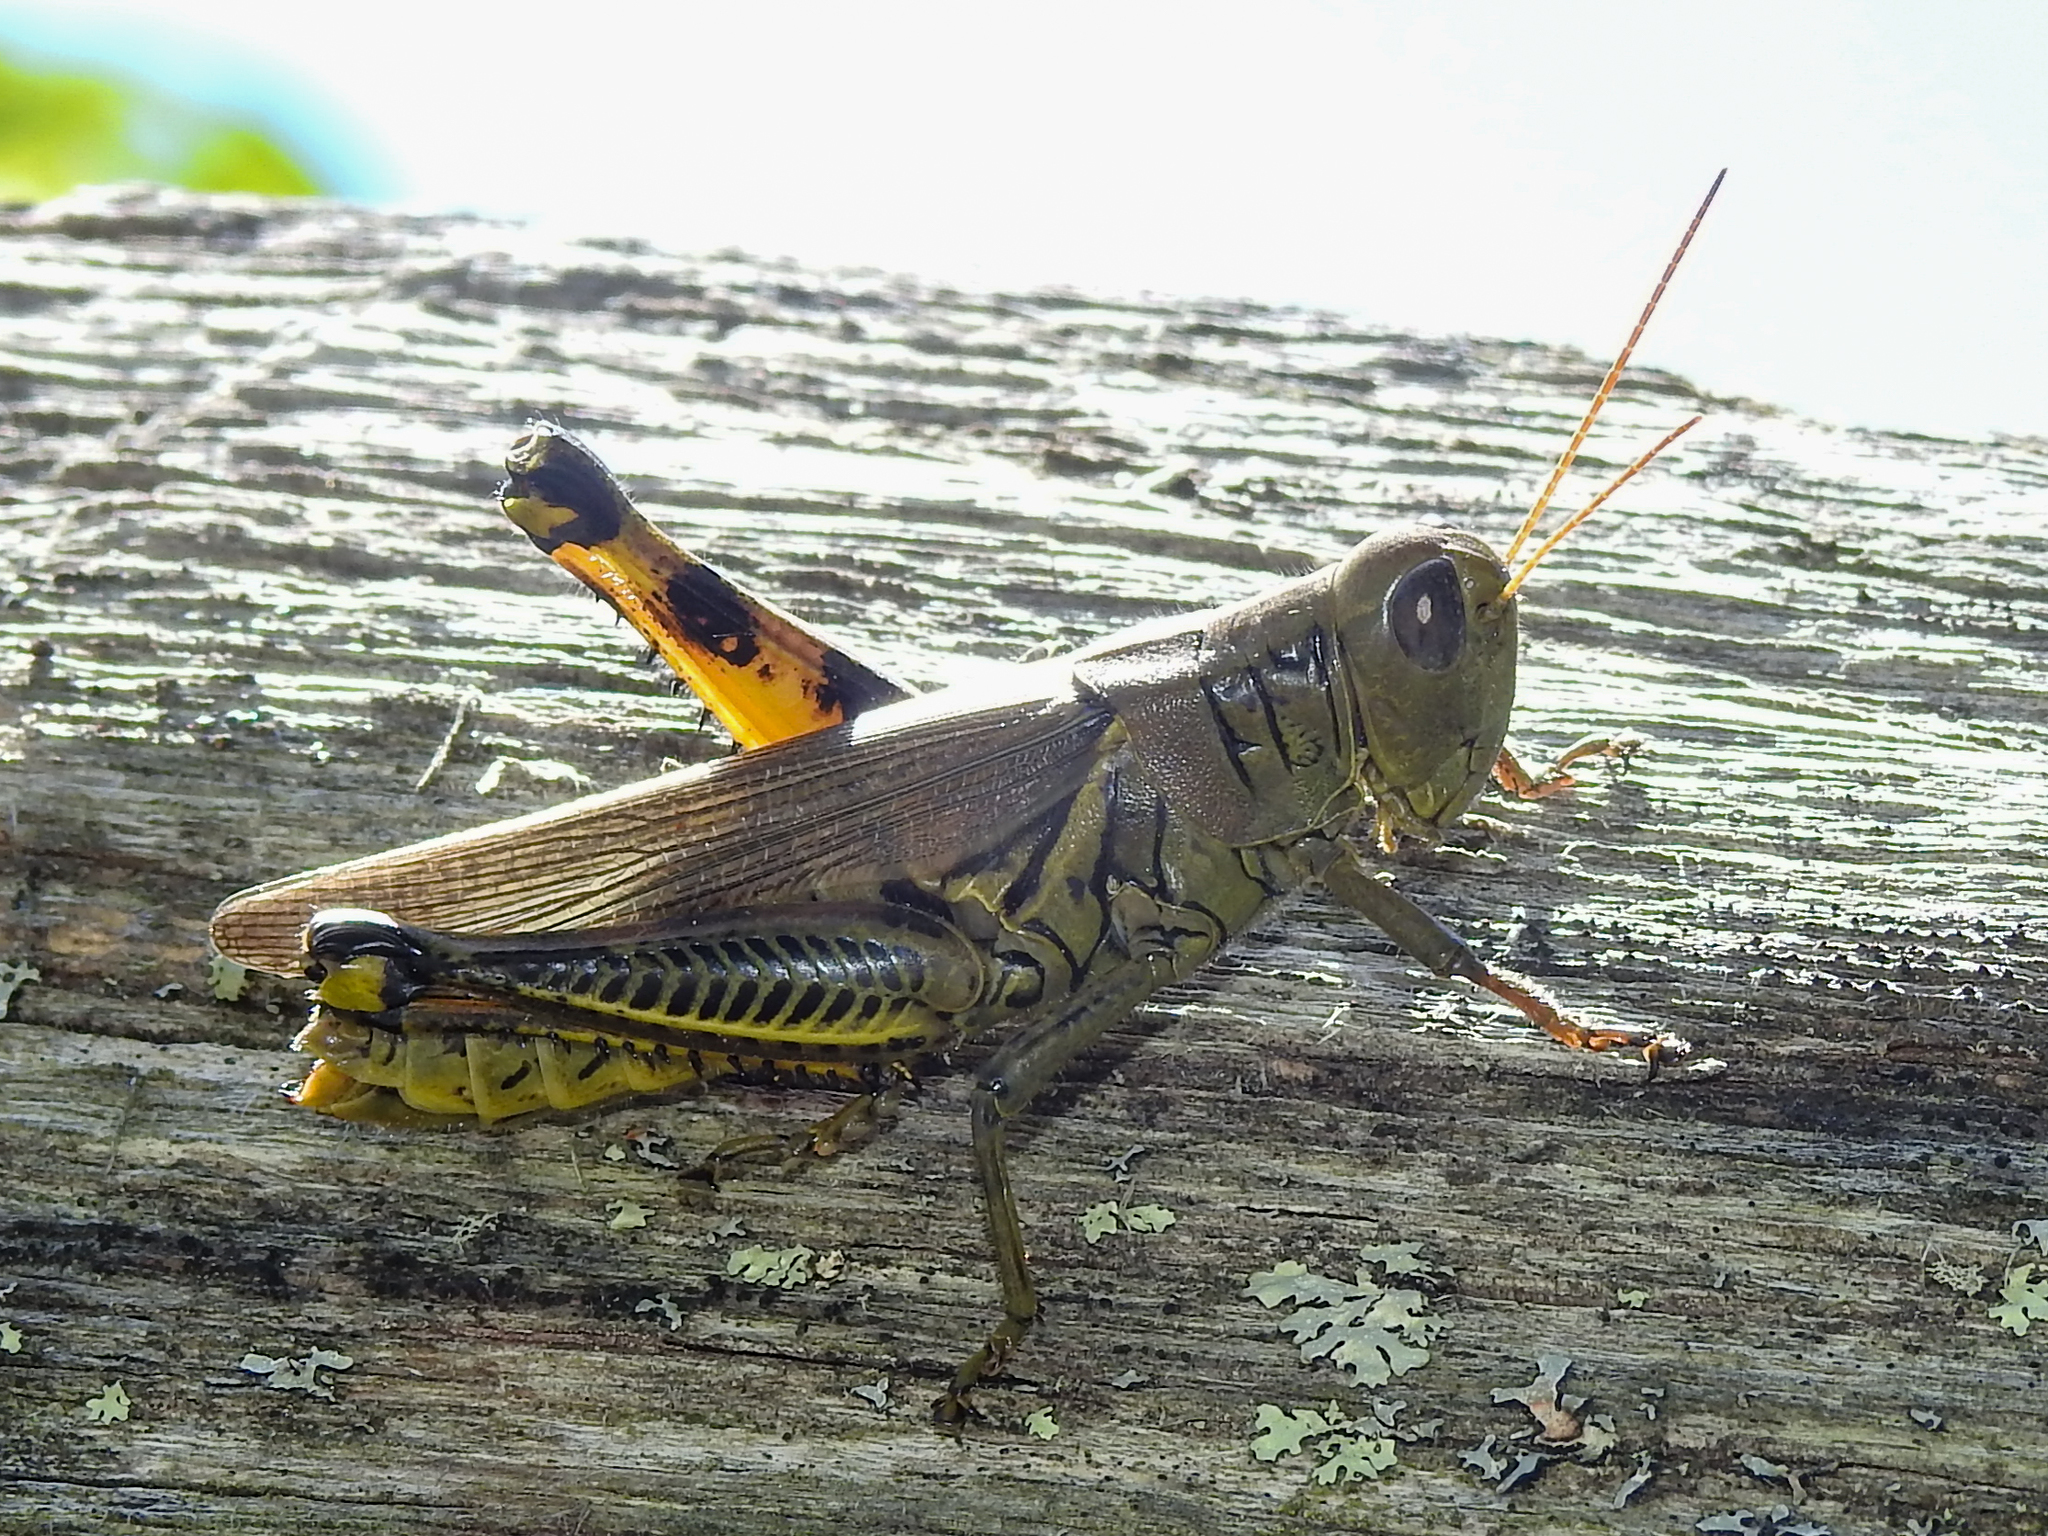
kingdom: Animalia
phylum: Arthropoda
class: Insecta
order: Orthoptera
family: Acrididae
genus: Melanoplus
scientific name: Melanoplus differentialis
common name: Differential grasshopper
